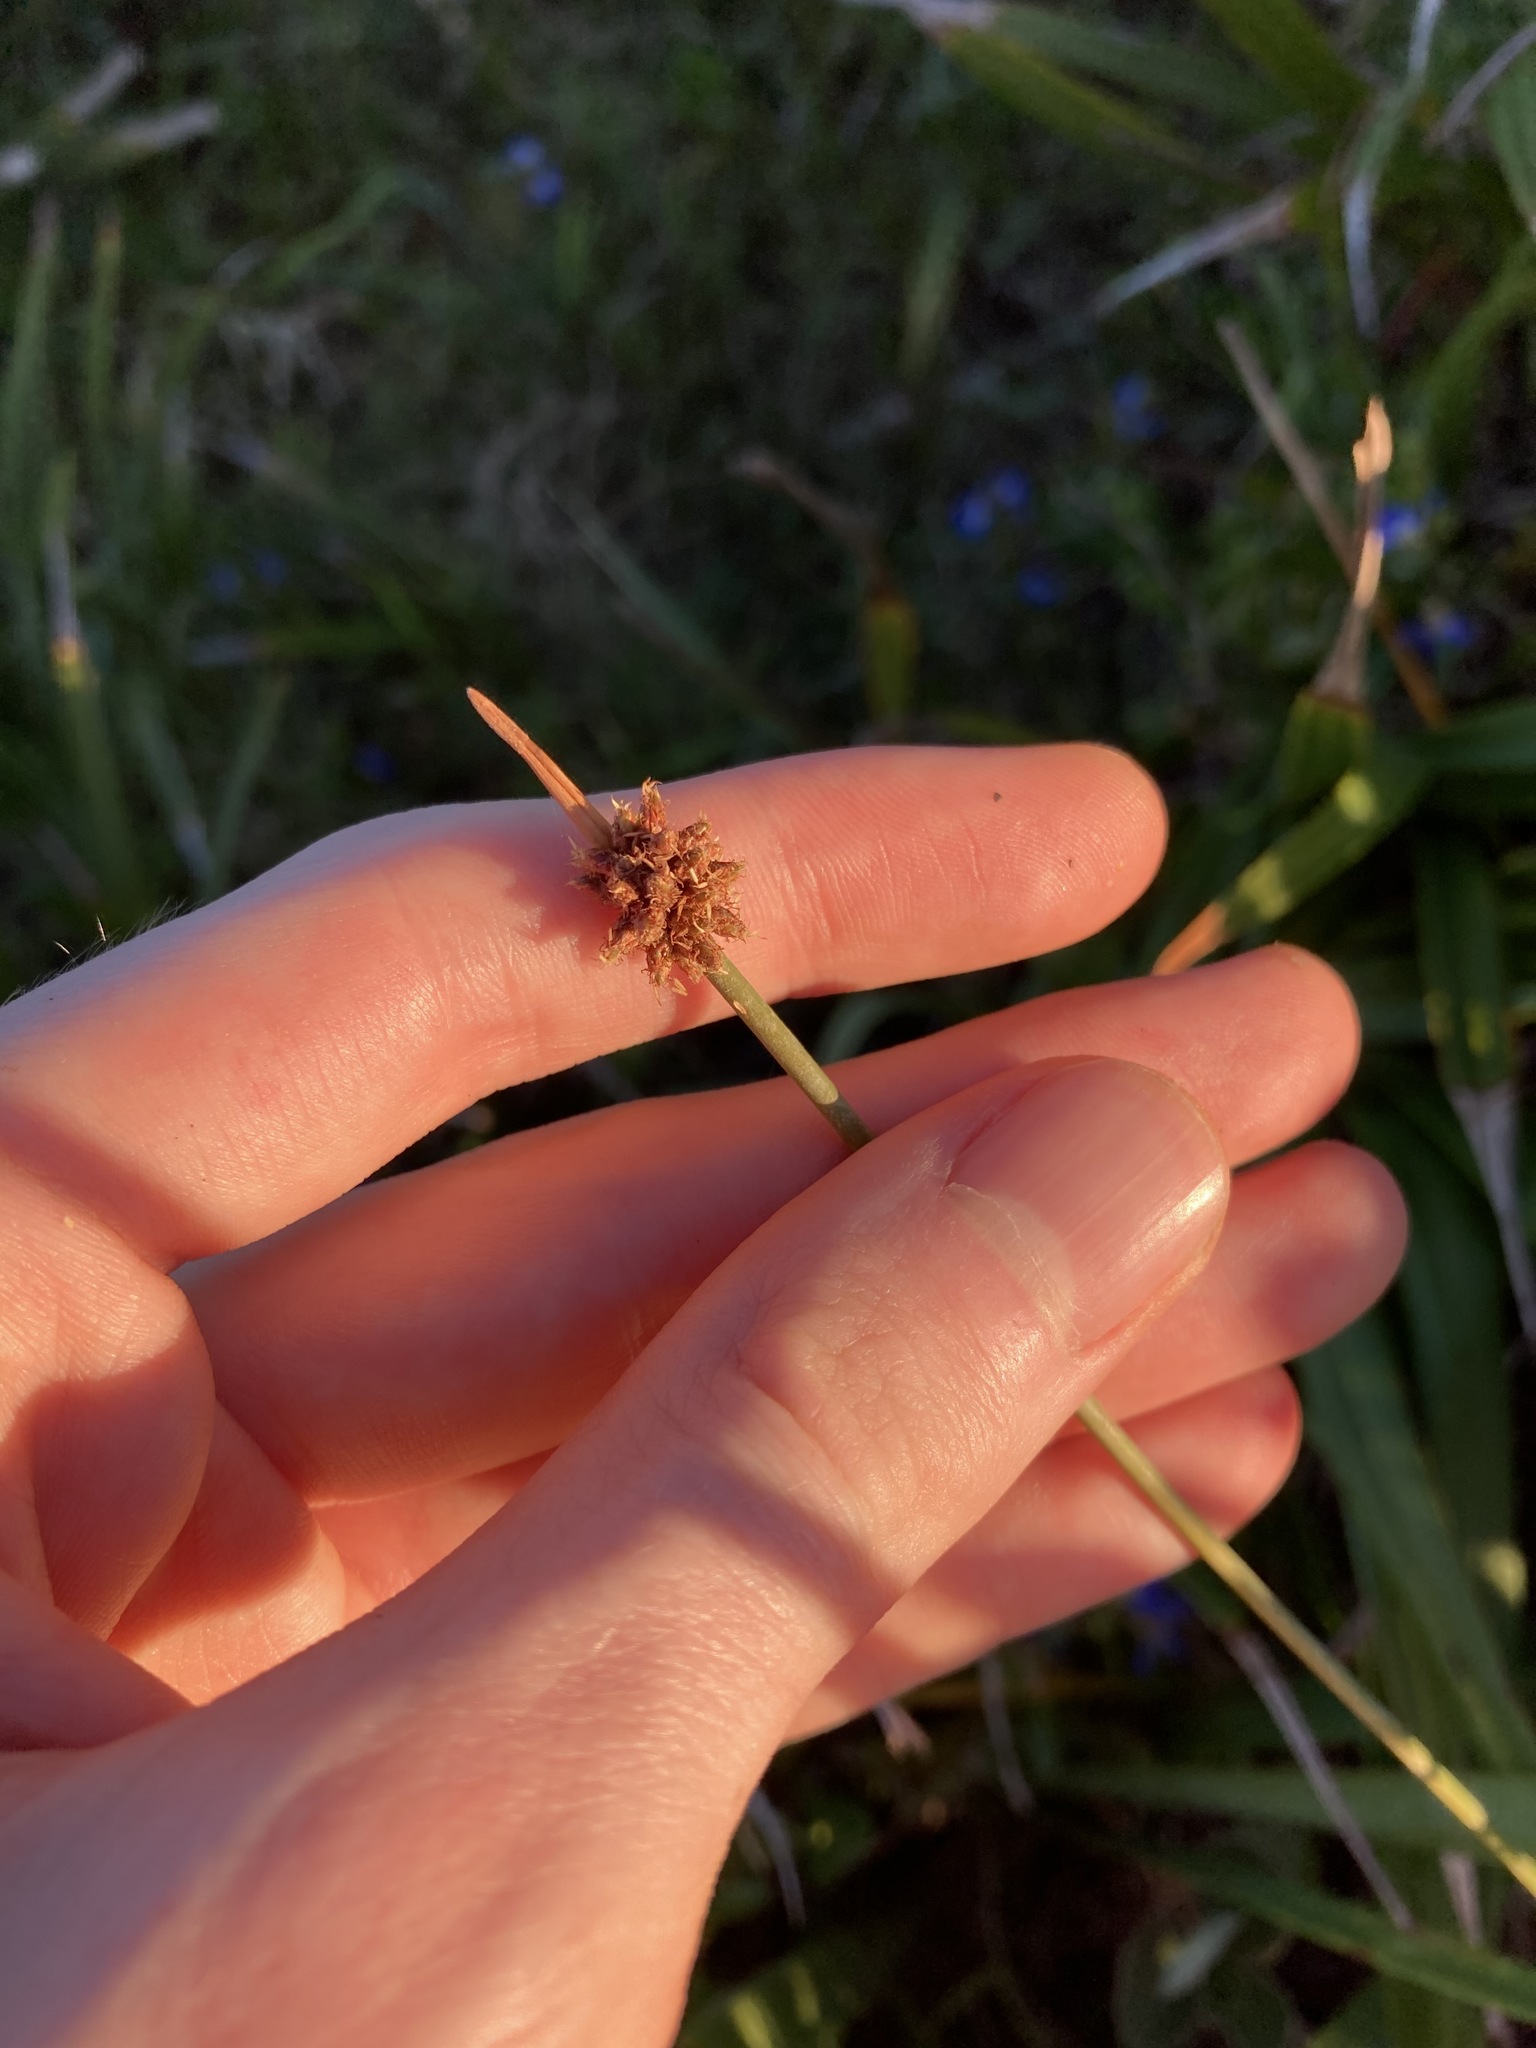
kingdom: Plantae
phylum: Tracheophyta
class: Liliopsida
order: Poales
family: Cyperaceae
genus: Ficinia
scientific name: Ficinia nodosa
